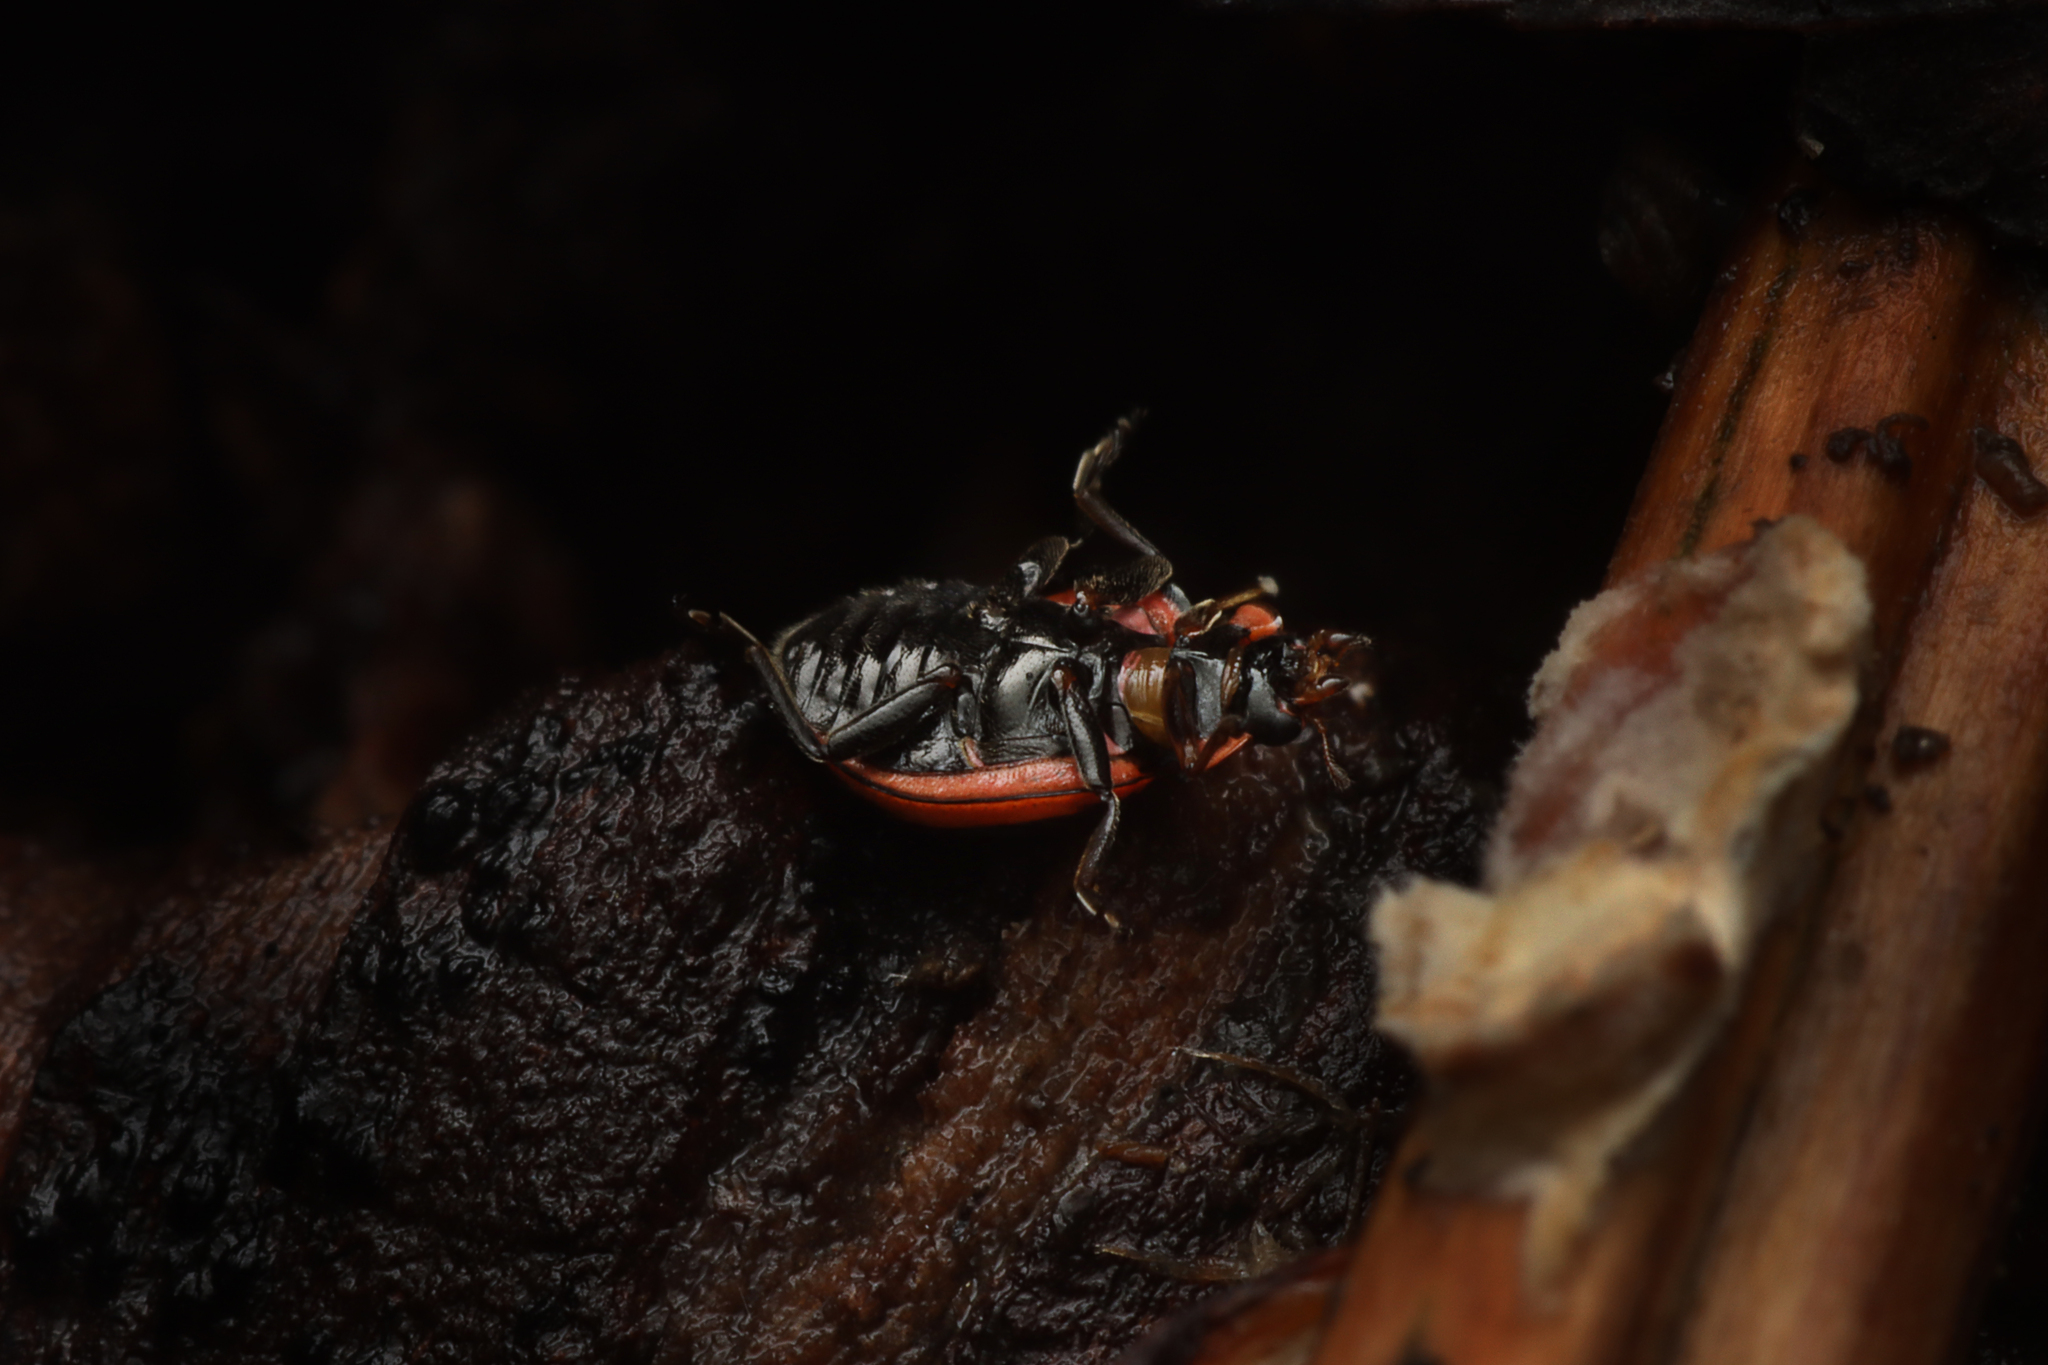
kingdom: Animalia
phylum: Arthropoda
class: Insecta
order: Coleoptera
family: Coccinellidae
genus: Micraspis
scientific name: Micraspis frenata
